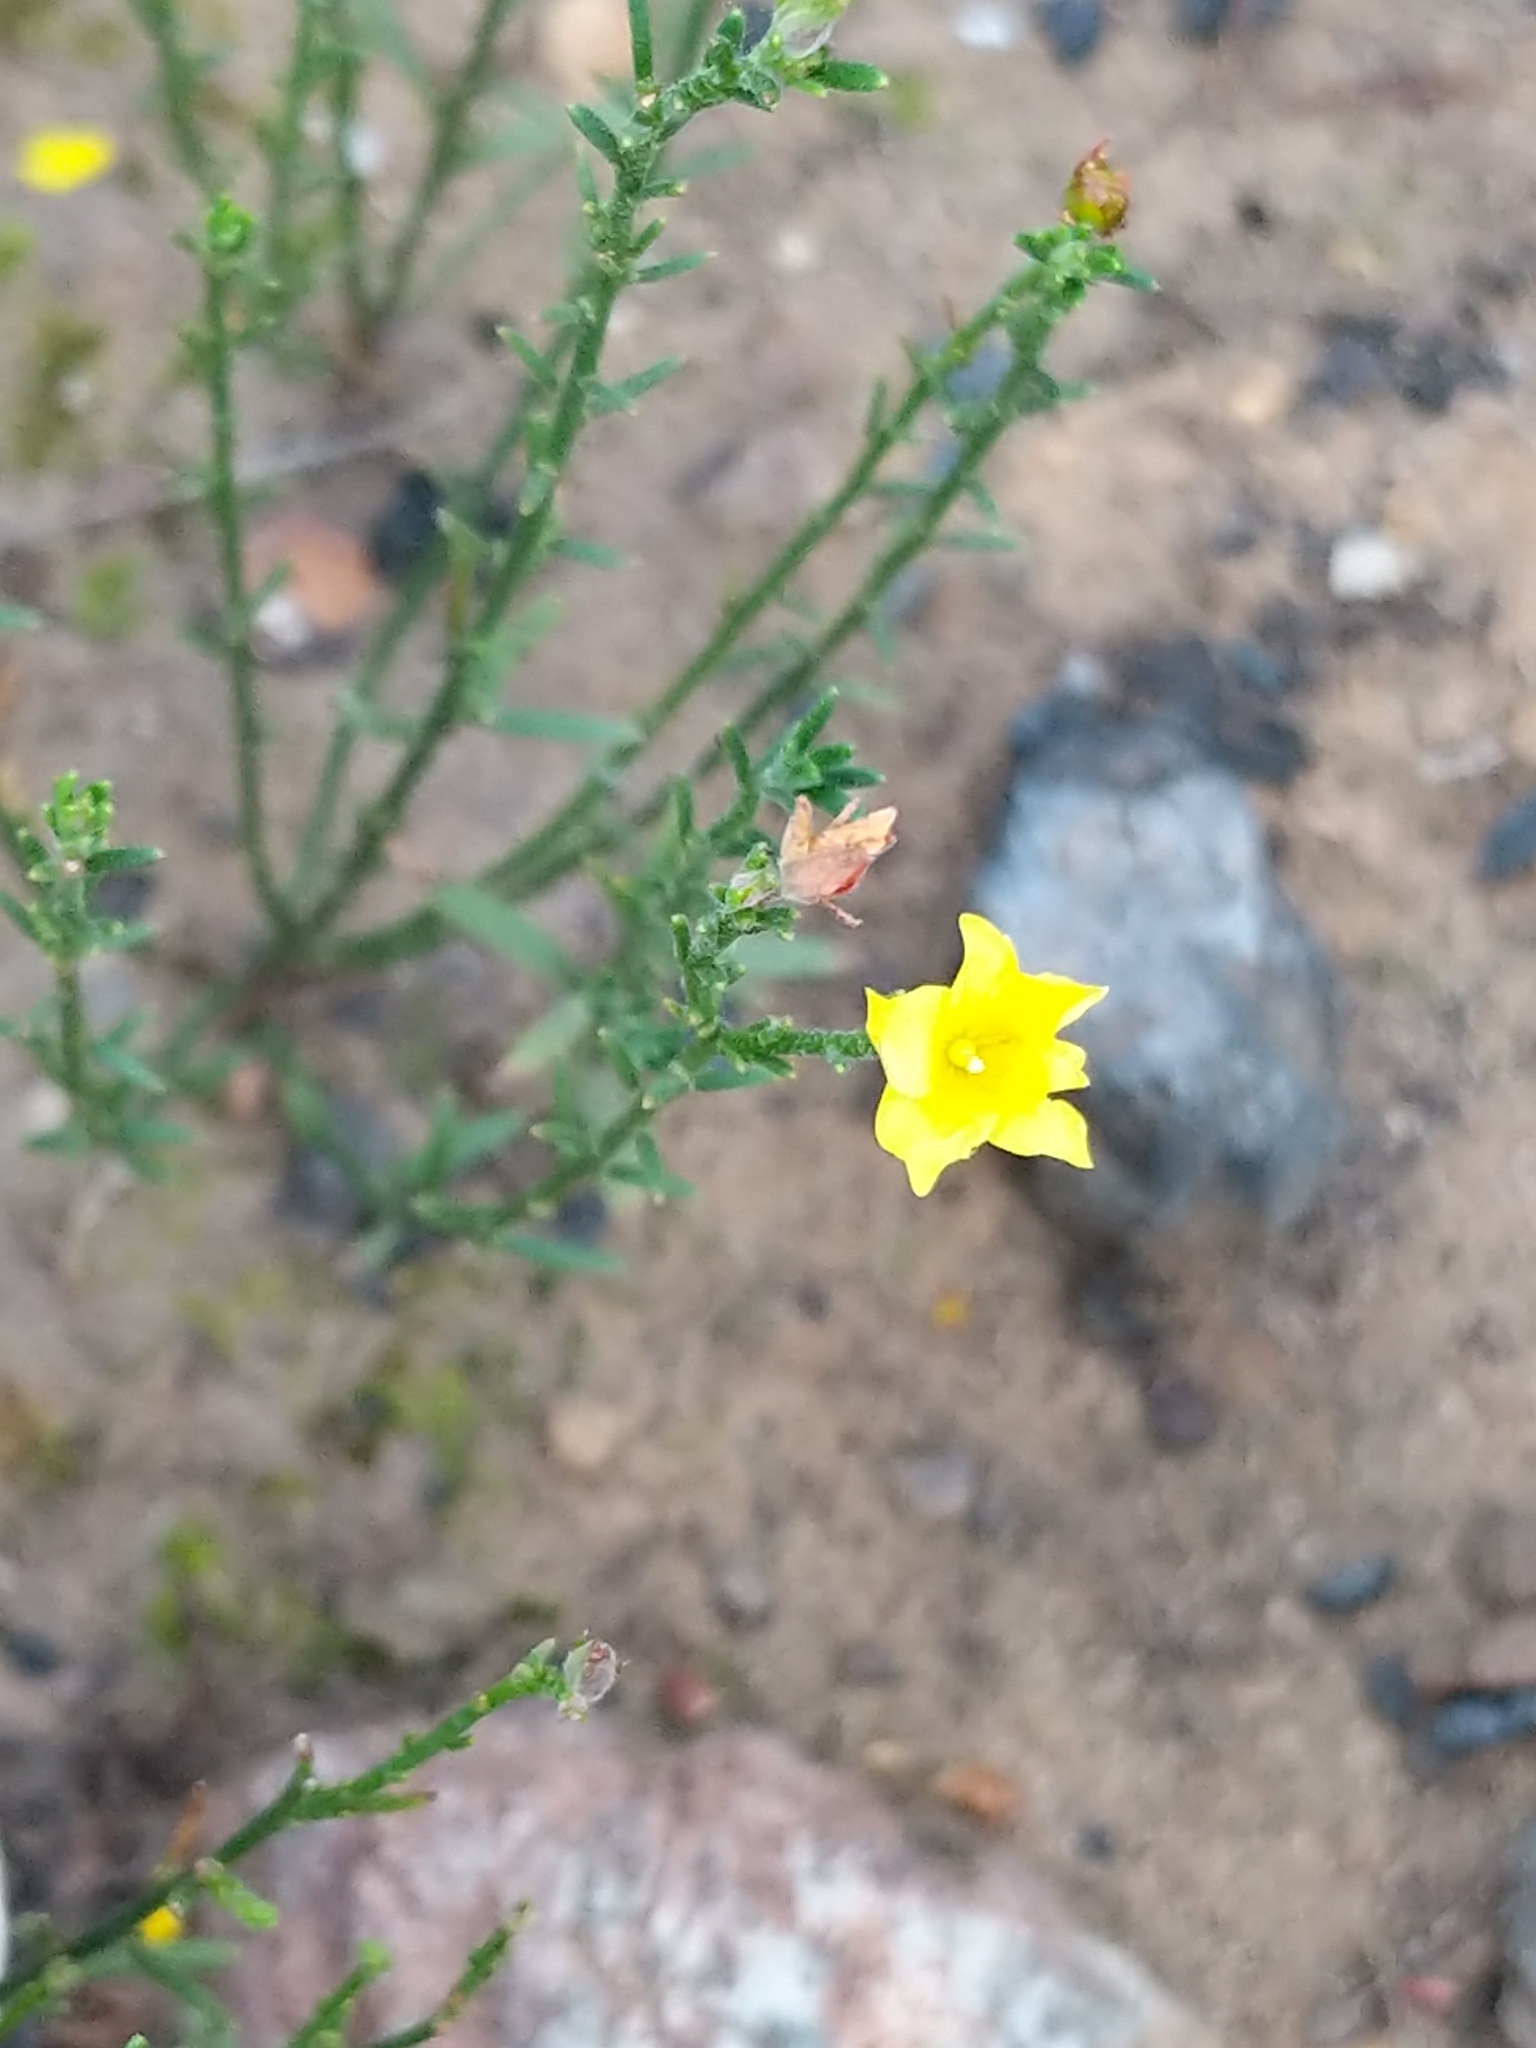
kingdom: Plantae
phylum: Tracheophyta
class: Magnoliopsida
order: Malvales
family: Cistaceae
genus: Crocanthemum
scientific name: Crocanthemum scoparium
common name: Broom-rose
